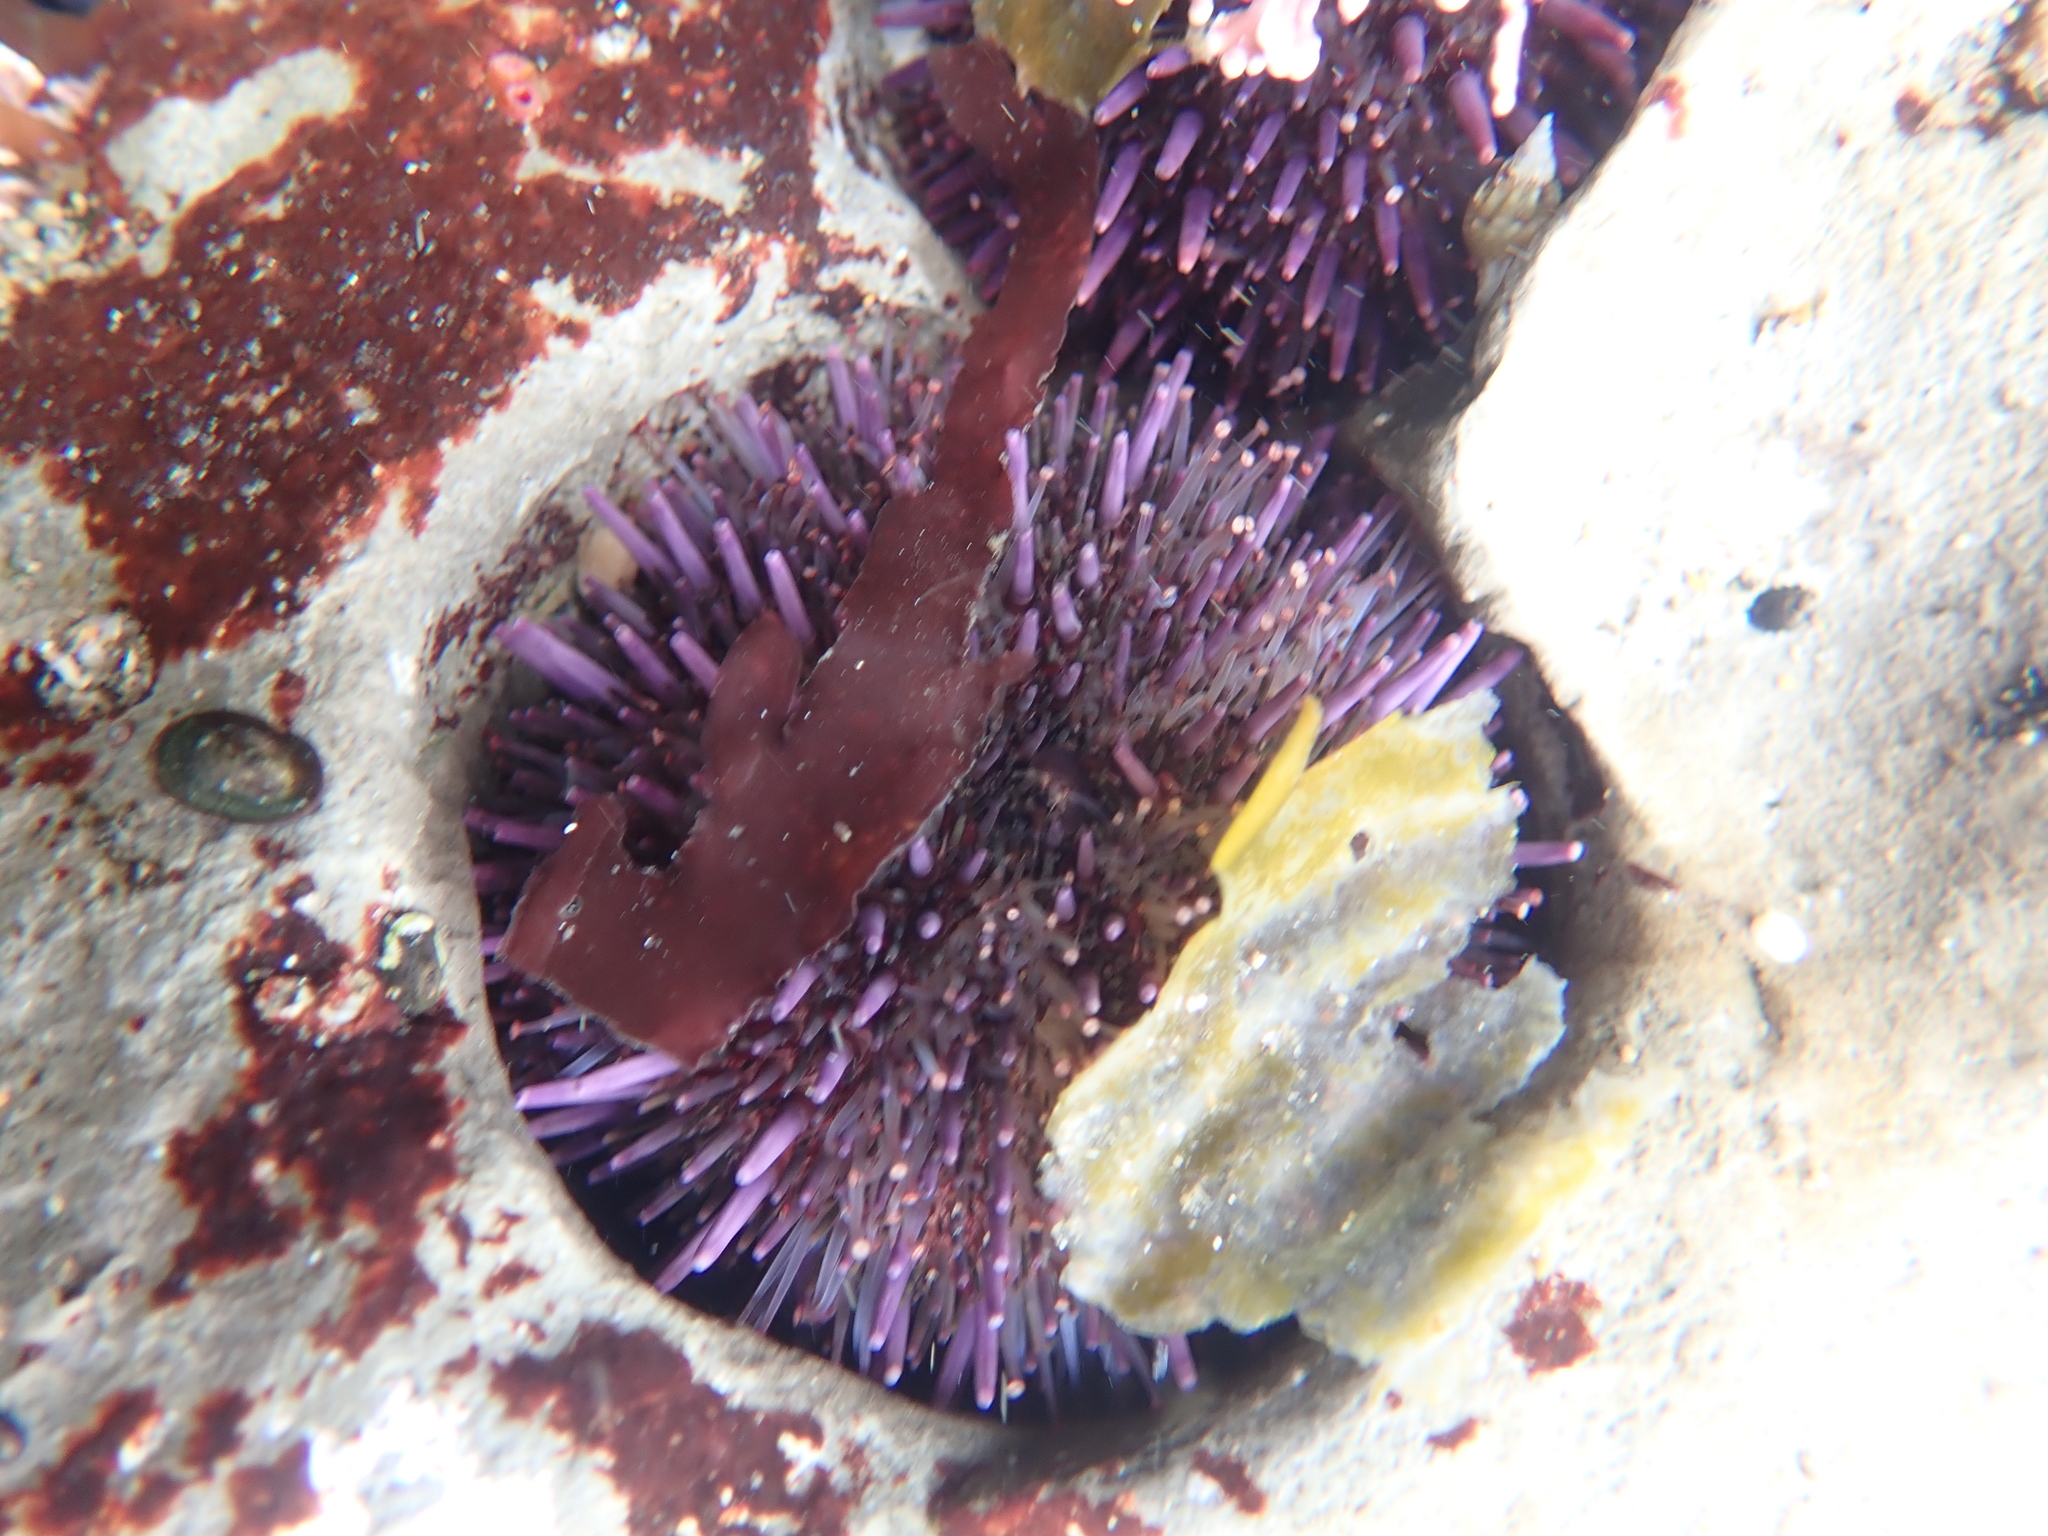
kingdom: Animalia
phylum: Echinodermata
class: Echinoidea
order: Camarodonta
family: Strongylocentrotidae
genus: Strongylocentrotus
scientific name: Strongylocentrotus purpuratus
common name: Purple sea urchin
